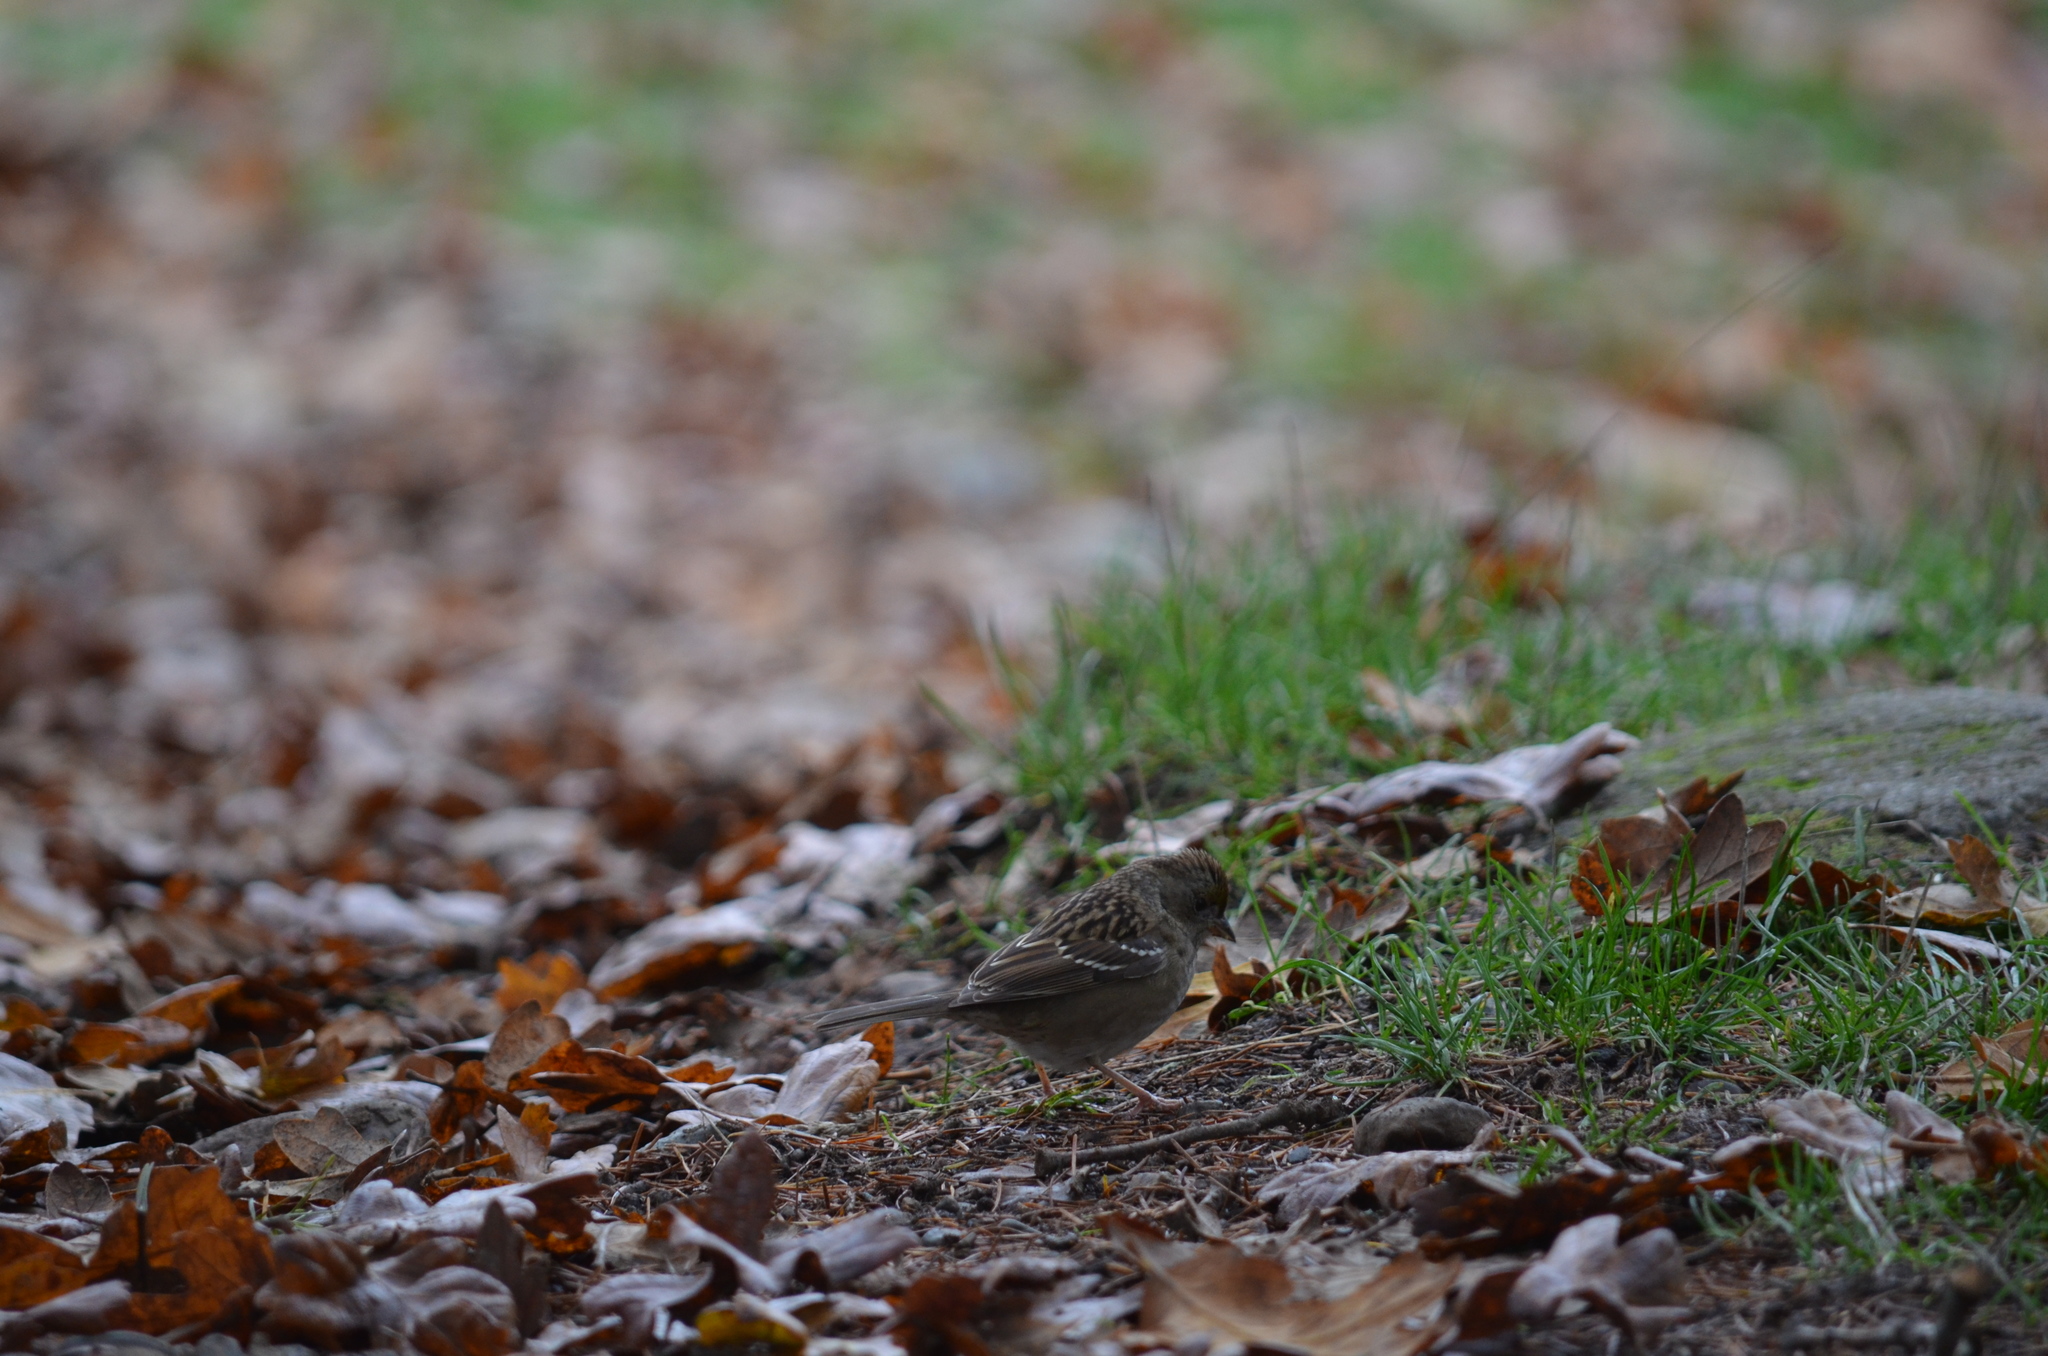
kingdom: Animalia
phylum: Chordata
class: Aves
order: Passeriformes
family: Passerellidae
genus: Zonotrichia
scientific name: Zonotrichia atricapilla
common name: Golden-crowned sparrow
